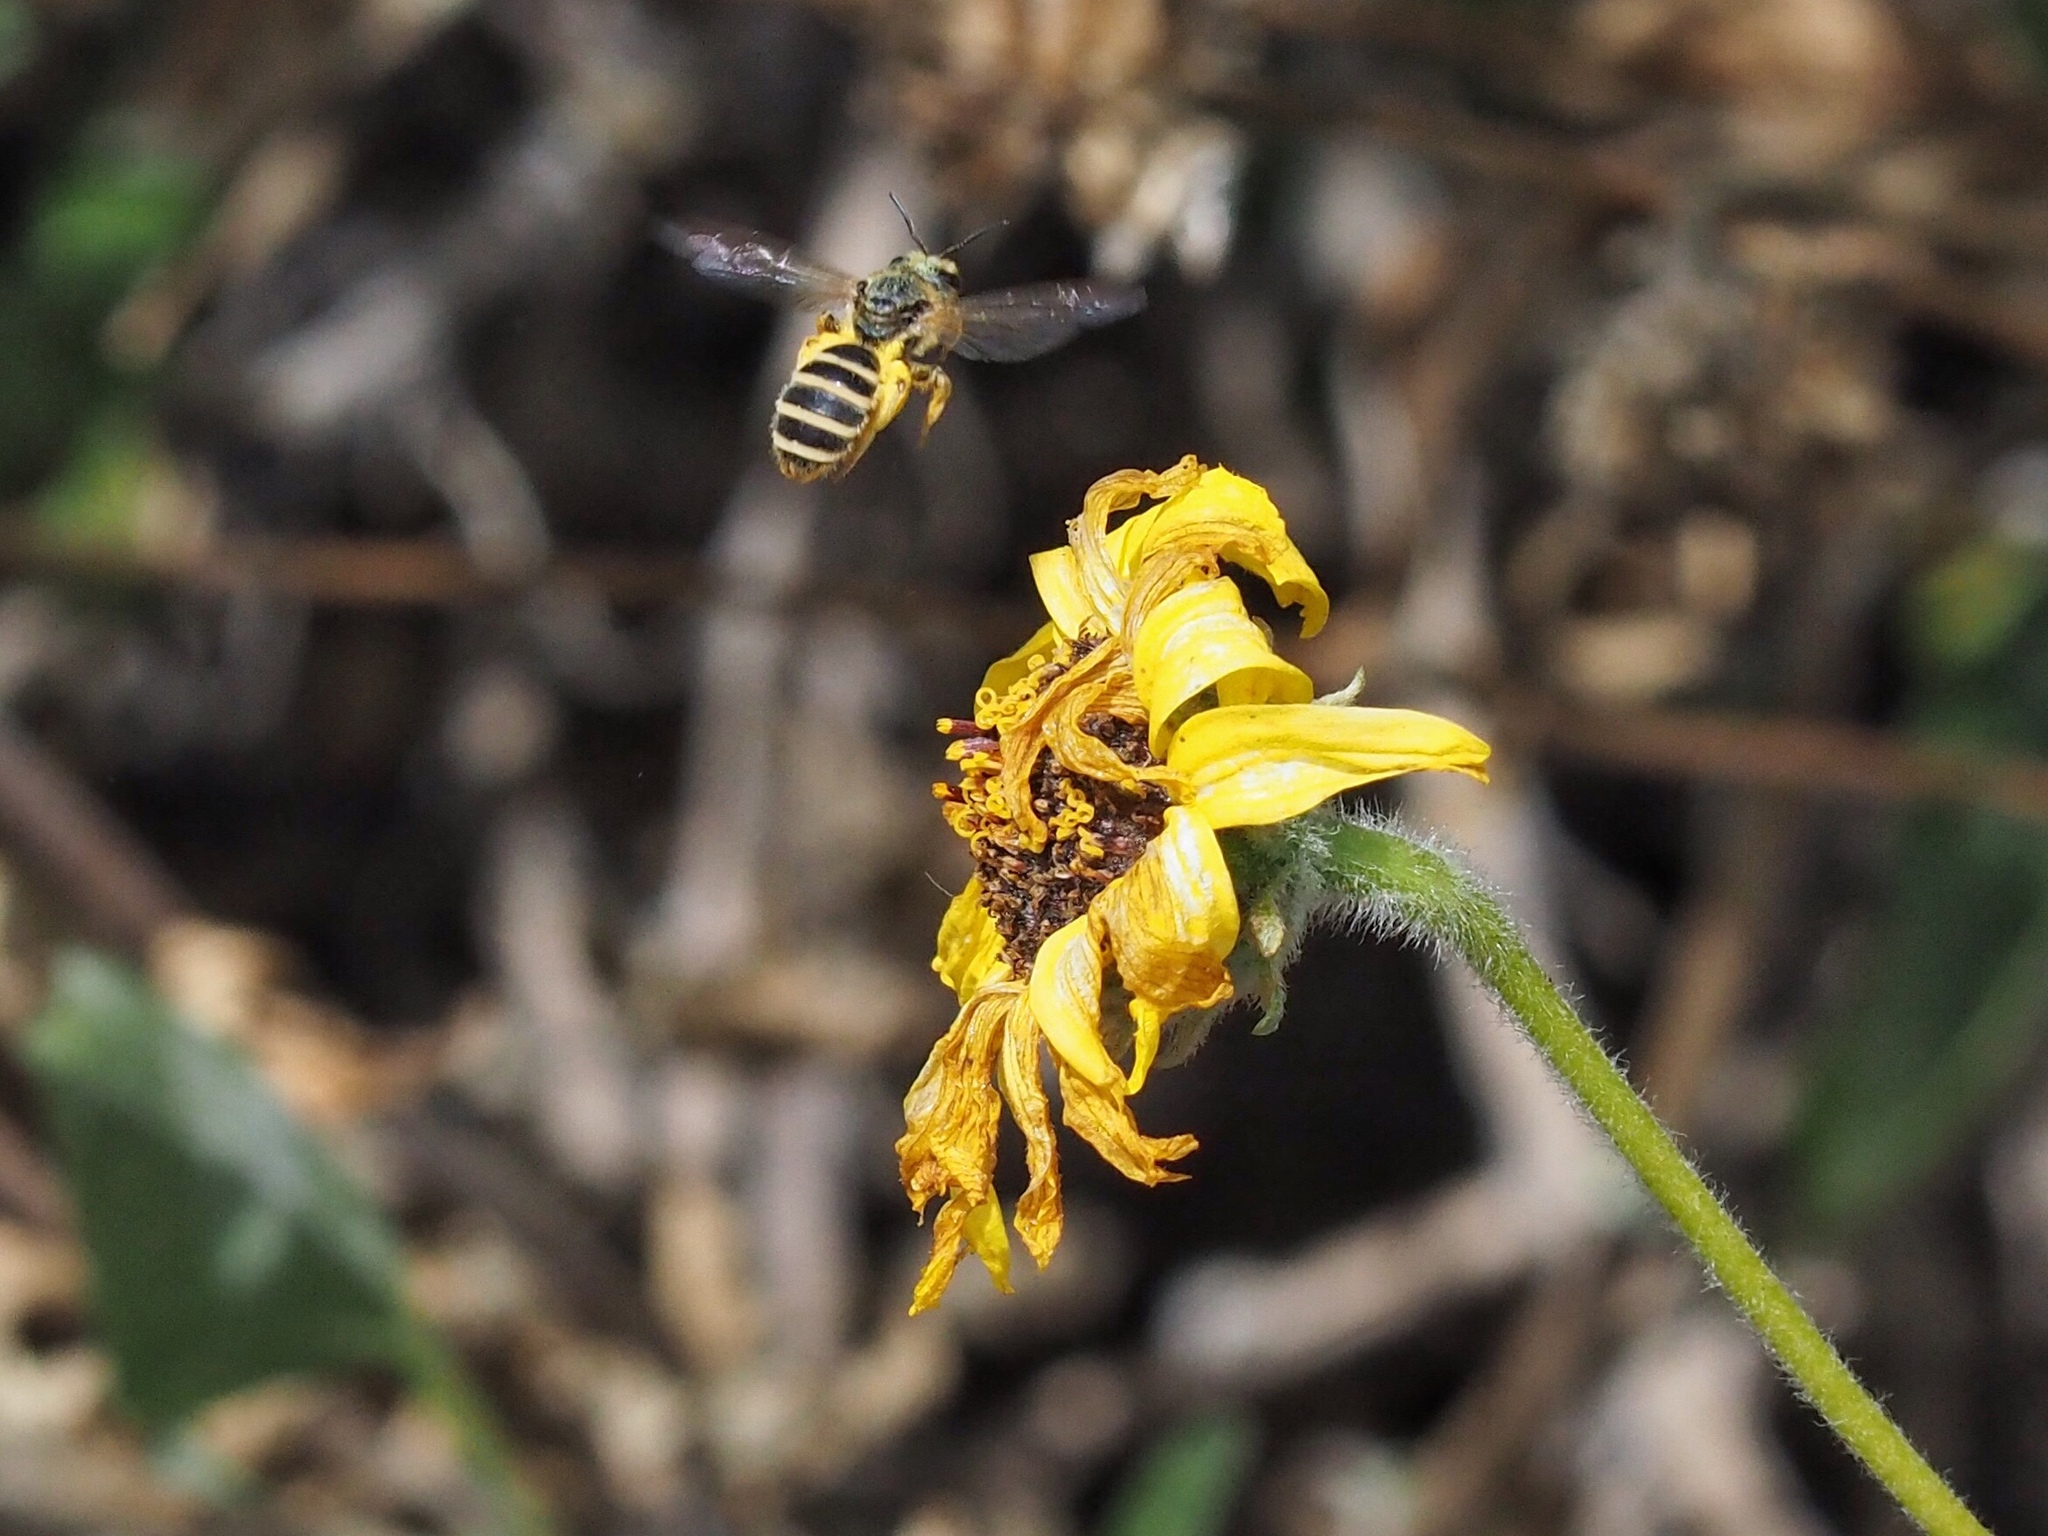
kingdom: Animalia
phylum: Arthropoda
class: Insecta
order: Hymenoptera
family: Halictidae
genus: Halictus
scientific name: Halictus farinosus
